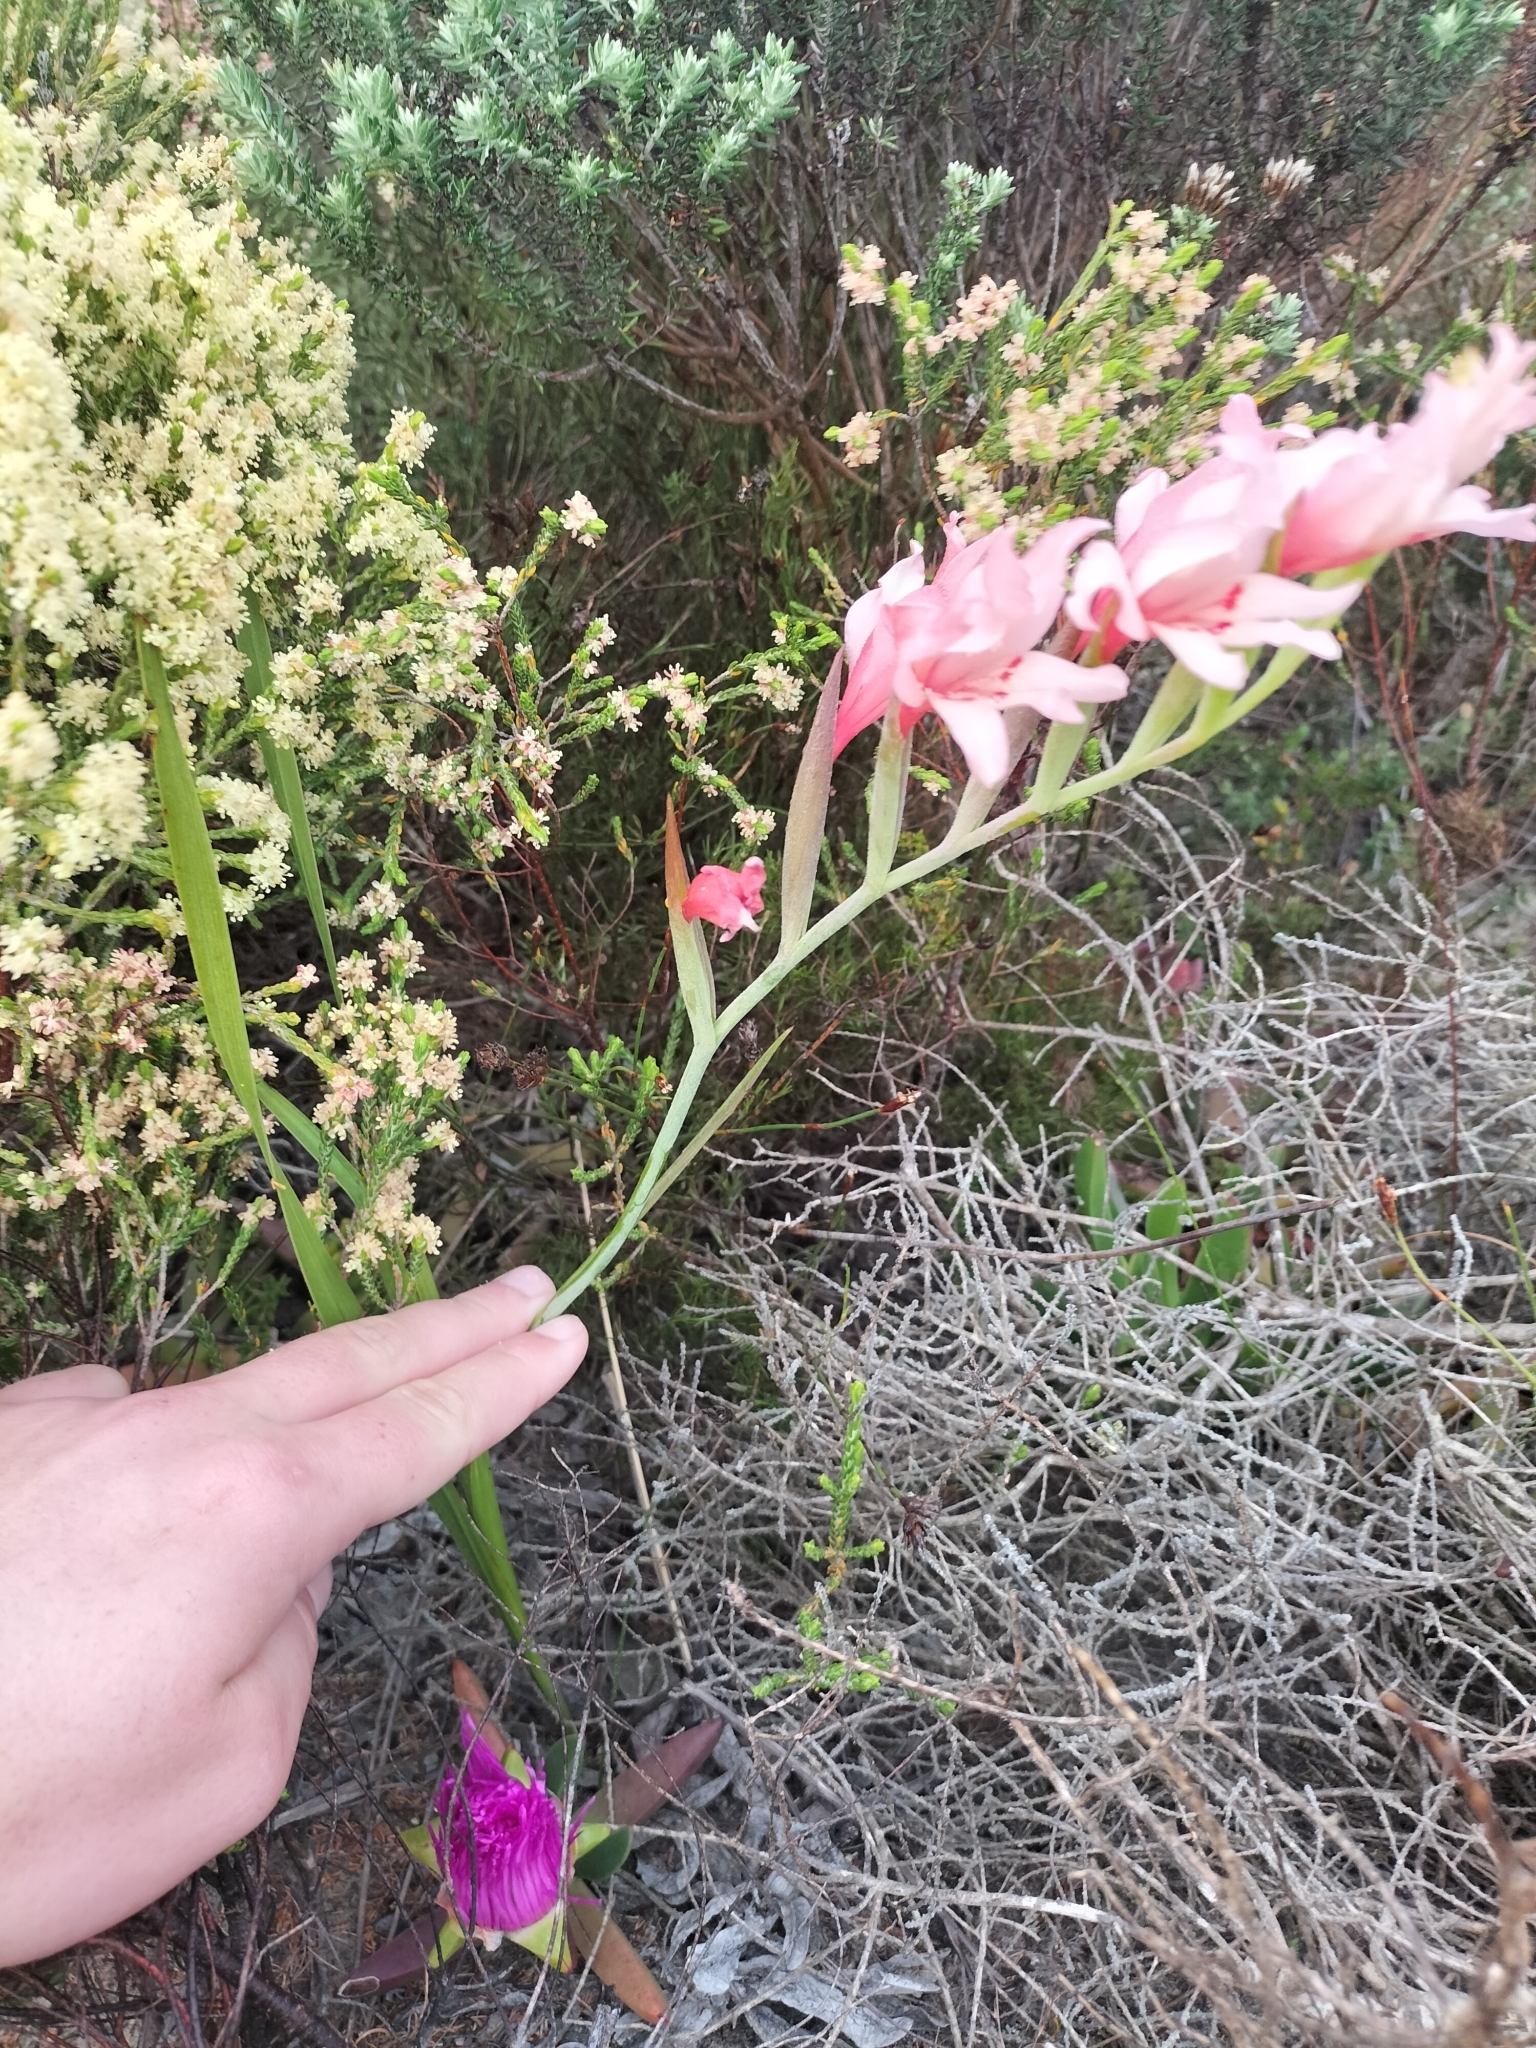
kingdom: Plantae
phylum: Tracheophyta
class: Liliopsida
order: Asparagales
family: Iridaceae
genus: Gladiolus
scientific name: Gladiolus carneus
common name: Painted-lady
